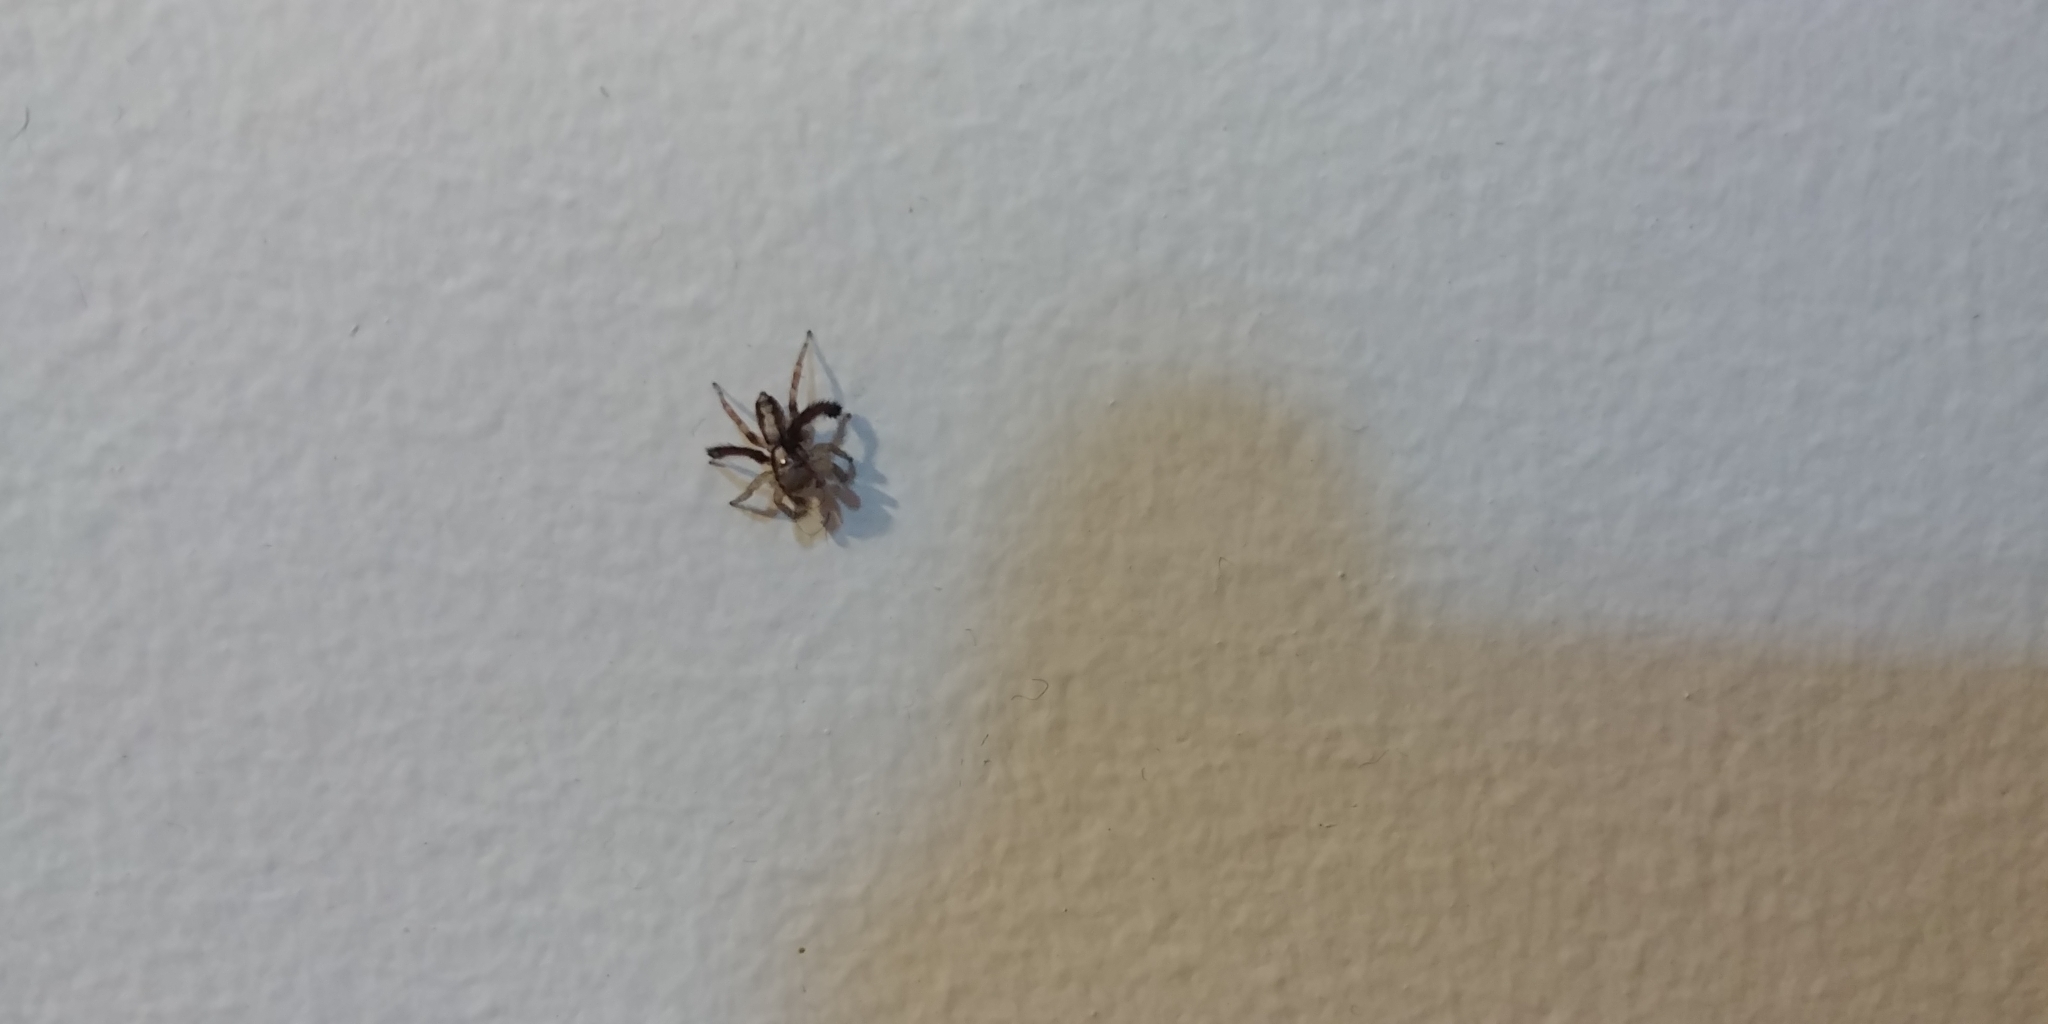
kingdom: Animalia
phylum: Arthropoda
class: Arachnida
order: Araneae
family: Salticidae
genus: Saitis
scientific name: Saitis barbipes
